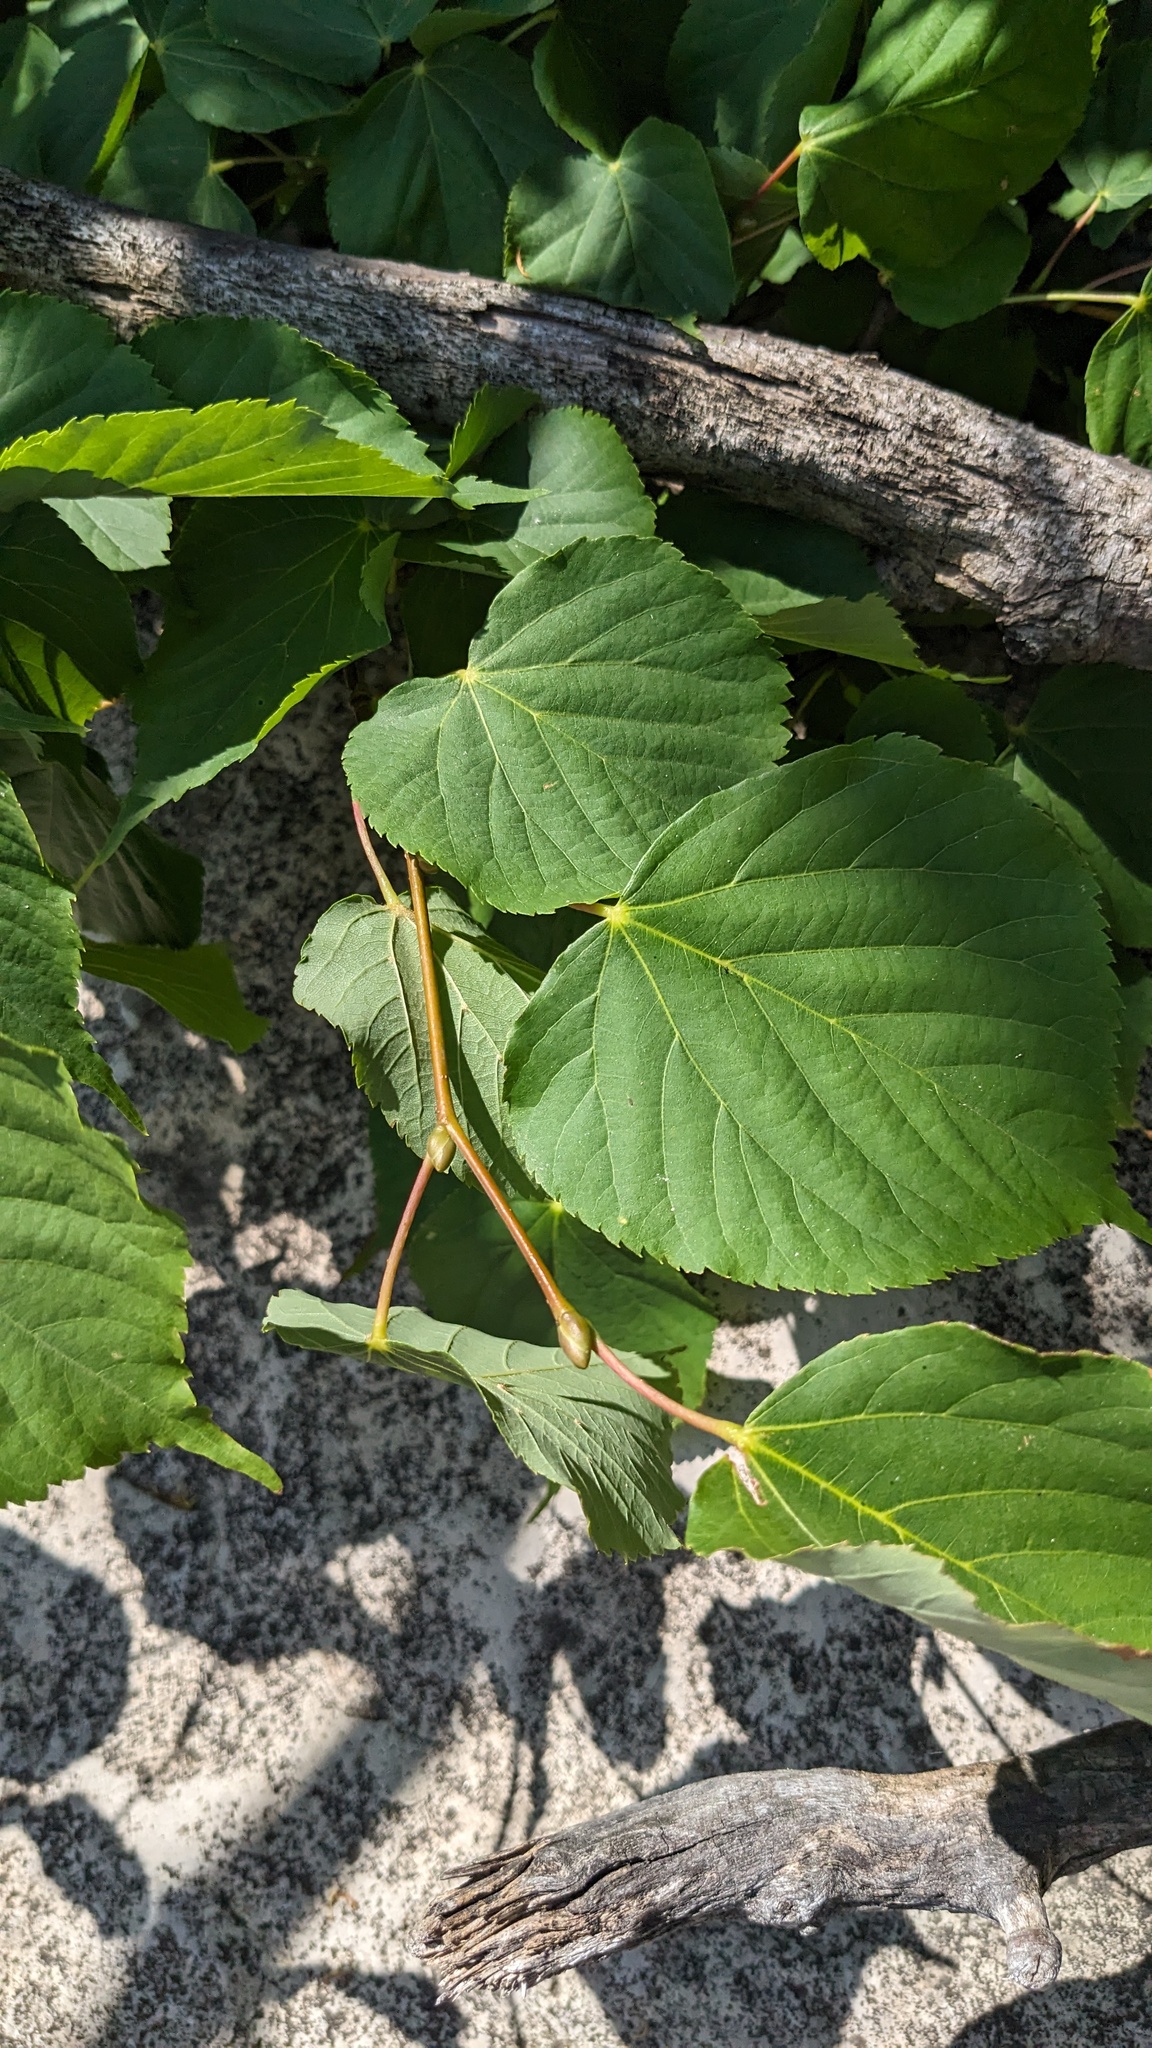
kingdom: Plantae
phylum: Tracheophyta
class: Magnoliopsida
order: Malvales
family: Malvaceae
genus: Tilia
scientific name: Tilia americana
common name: Basswood
